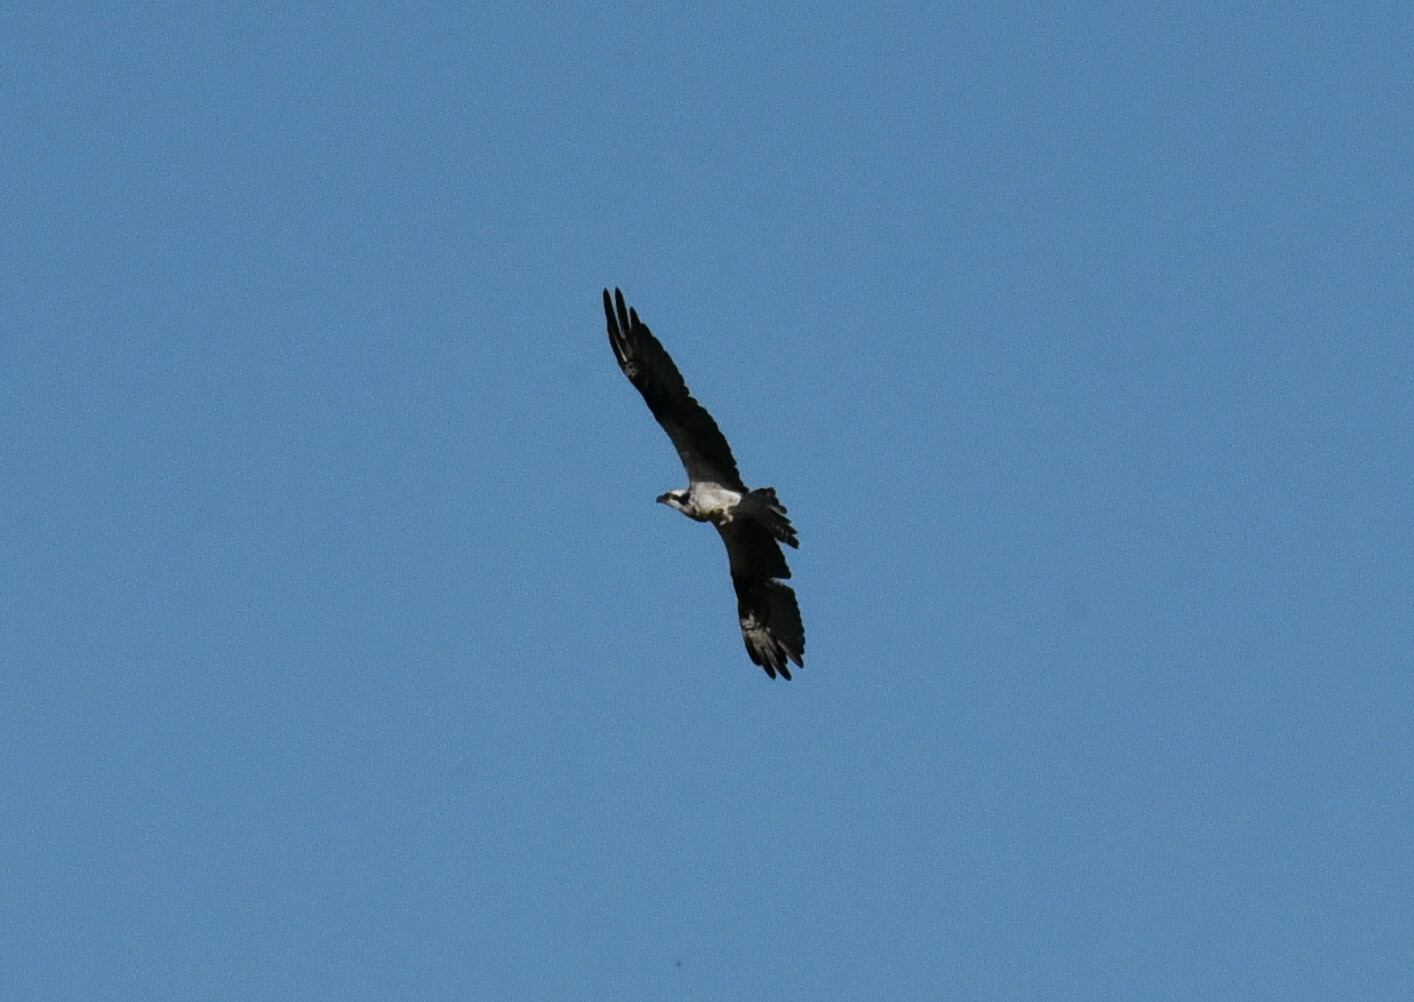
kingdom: Animalia
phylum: Chordata
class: Aves
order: Accipitriformes
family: Pandionidae
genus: Pandion
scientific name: Pandion haliaetus
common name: Osprey
